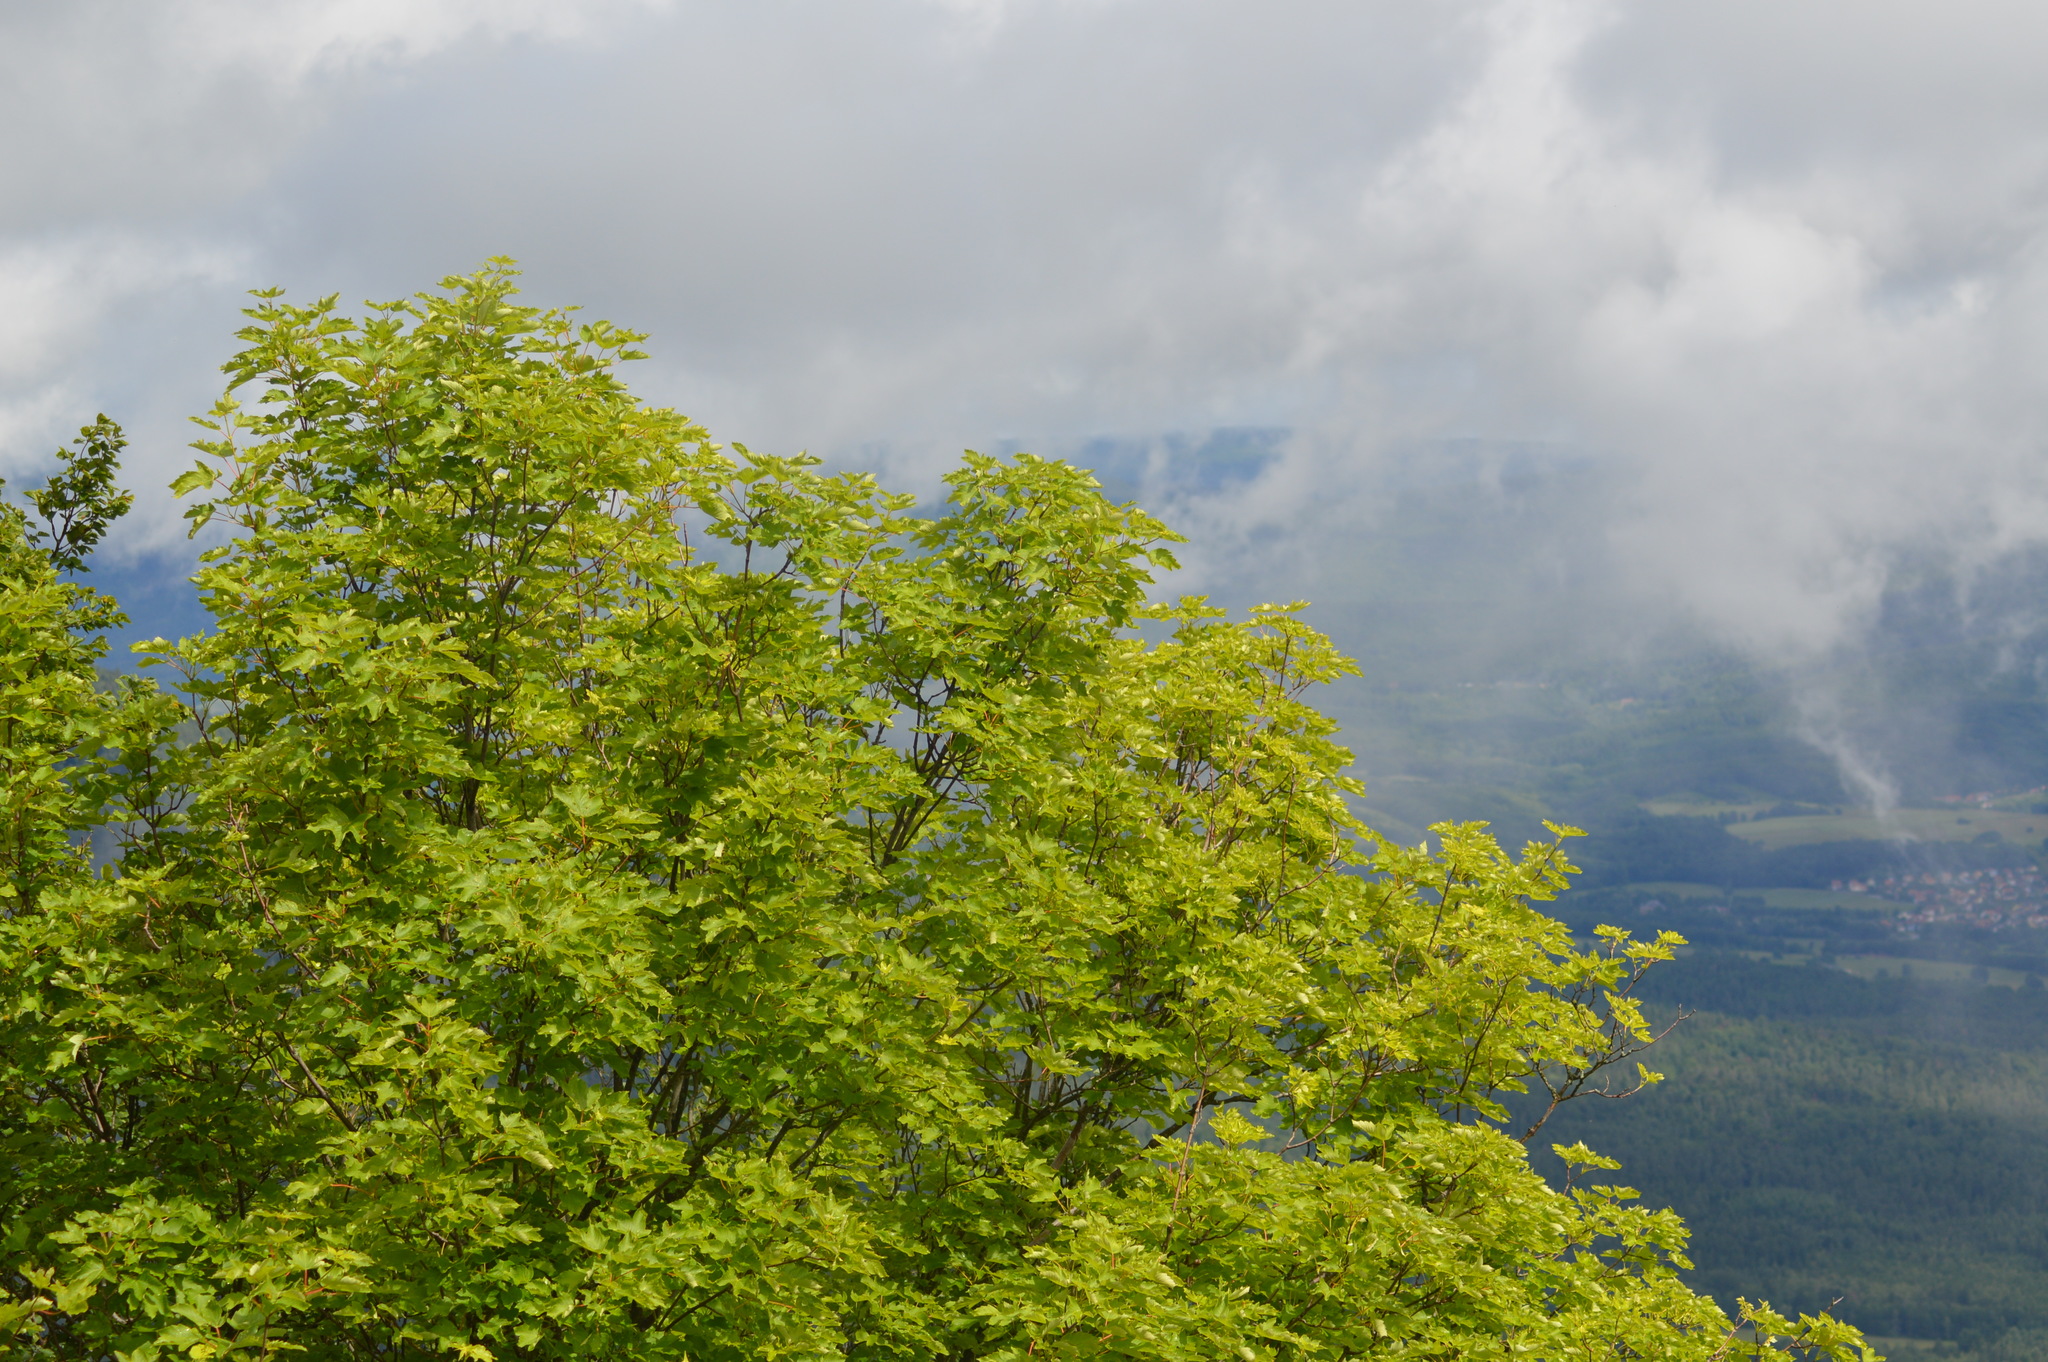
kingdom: Plantae
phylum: Tracheophyta
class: Magnoliopsida
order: Sapindales
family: Sapindaceae
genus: Acer
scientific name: Acer pseudoplatanus
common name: Sycamore
